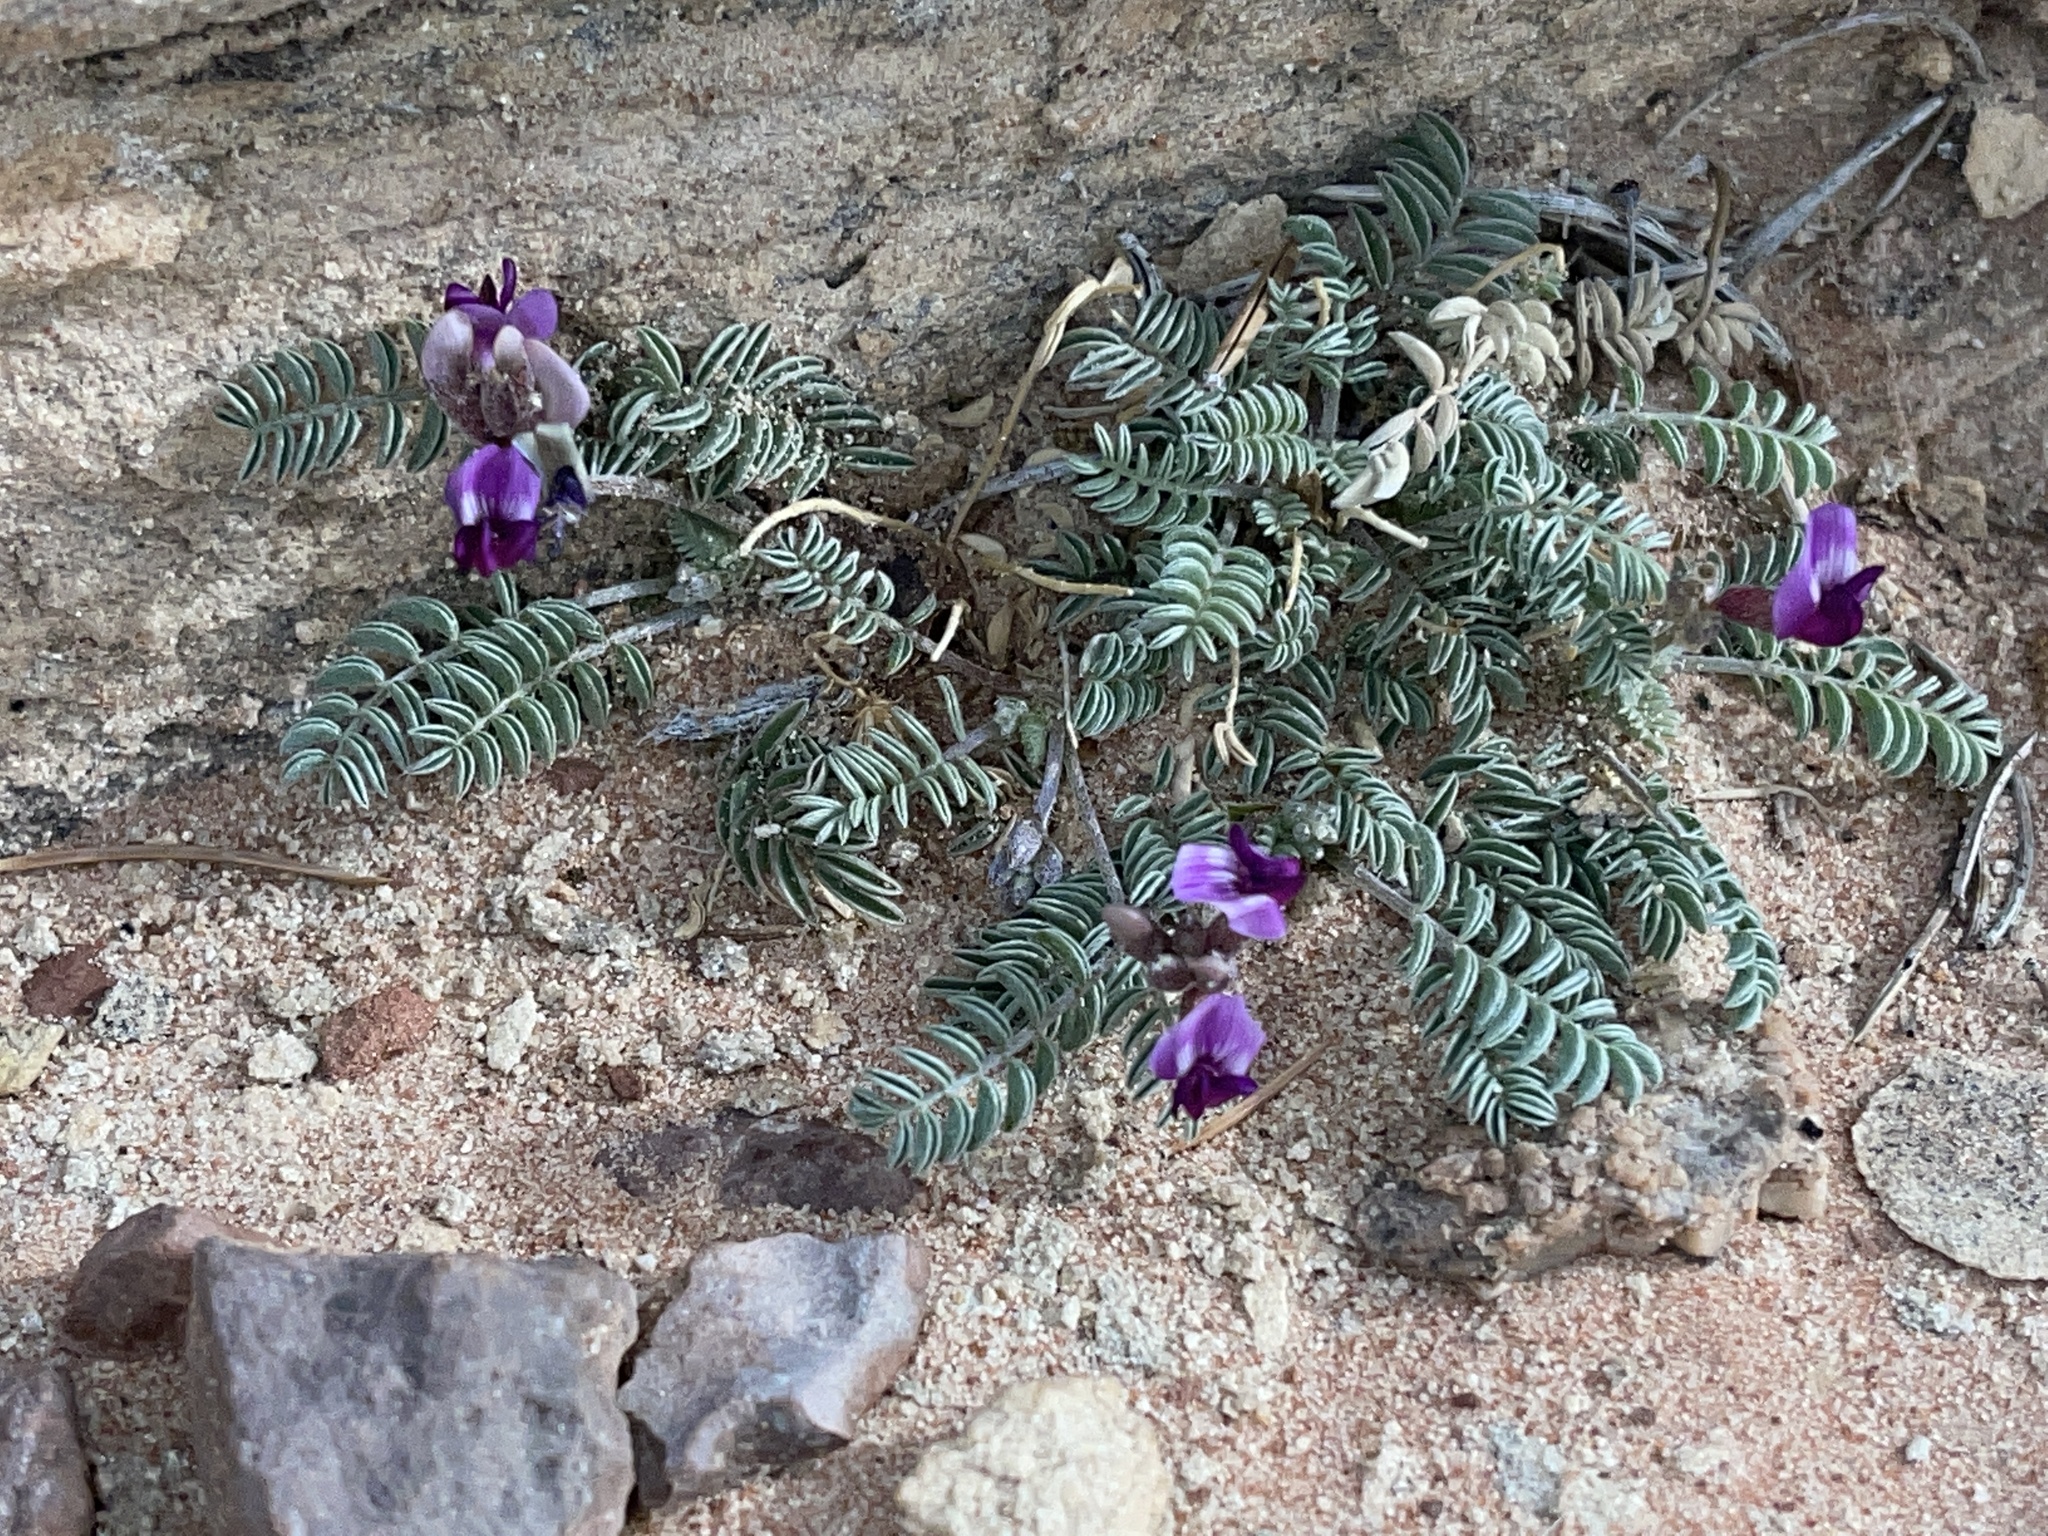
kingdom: Plantae
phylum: Tracheophyta
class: Magnoliopsida
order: Fabales
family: Fabaceae
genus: Astragalus
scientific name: Astragalus desperatus
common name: Rimrock milk-vetch
